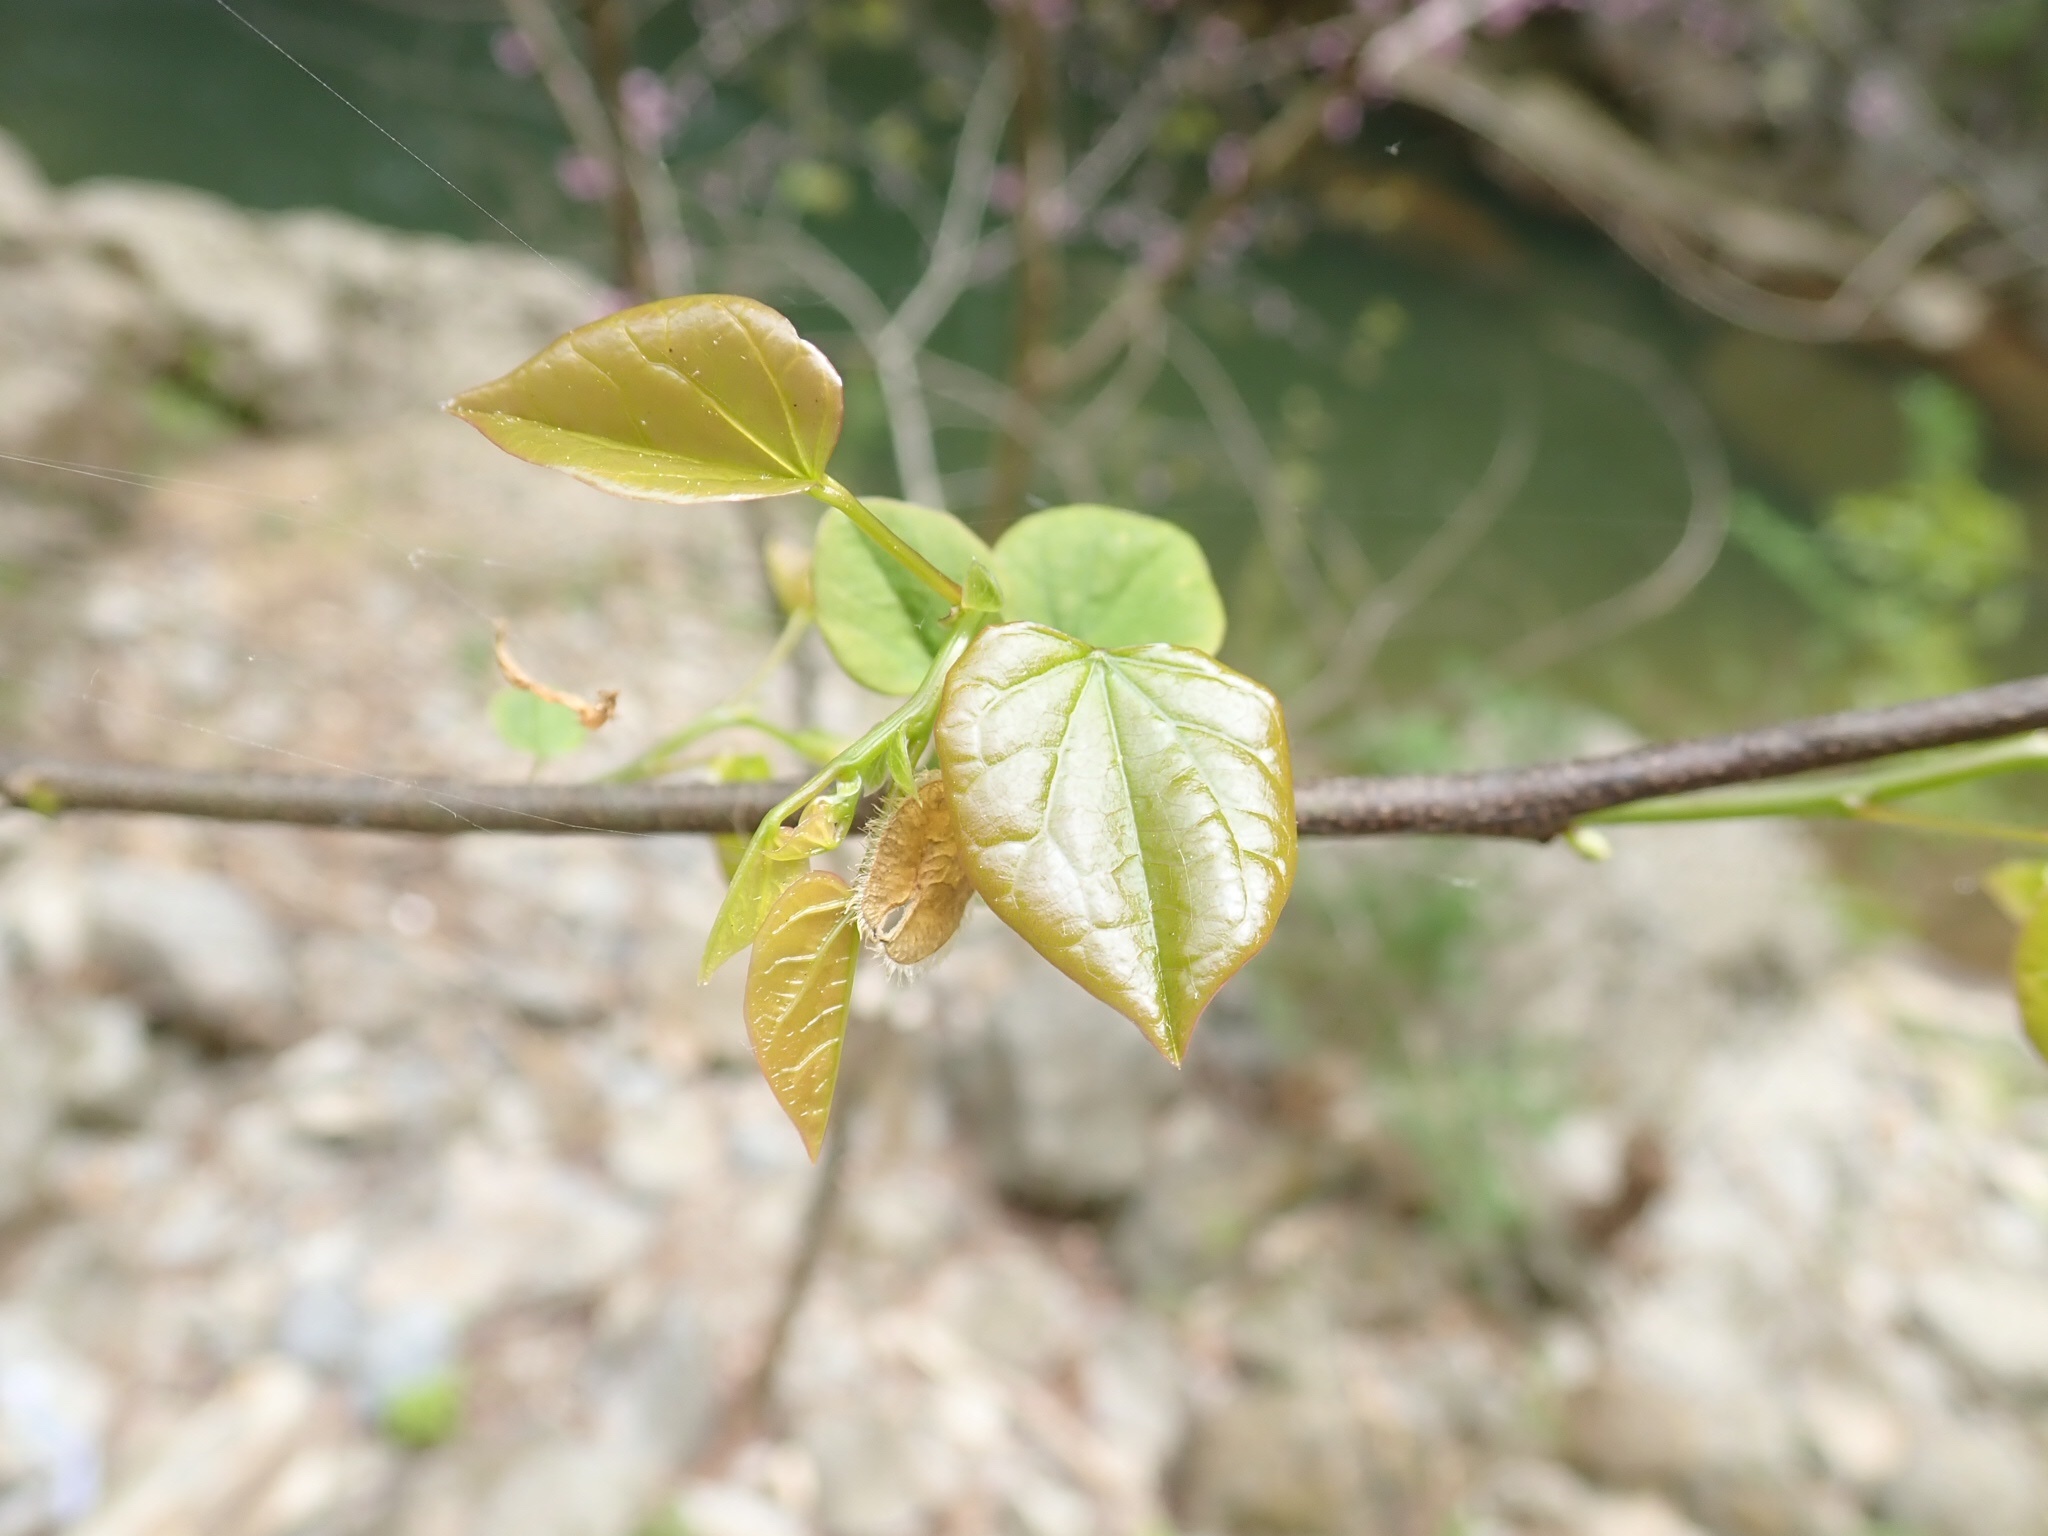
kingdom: Plantae
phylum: Tracheophyta
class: Magnoliopsida
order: Fabales
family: Fabaceae
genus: Cercis
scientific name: Cercis canadensis
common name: Eastern redbud
